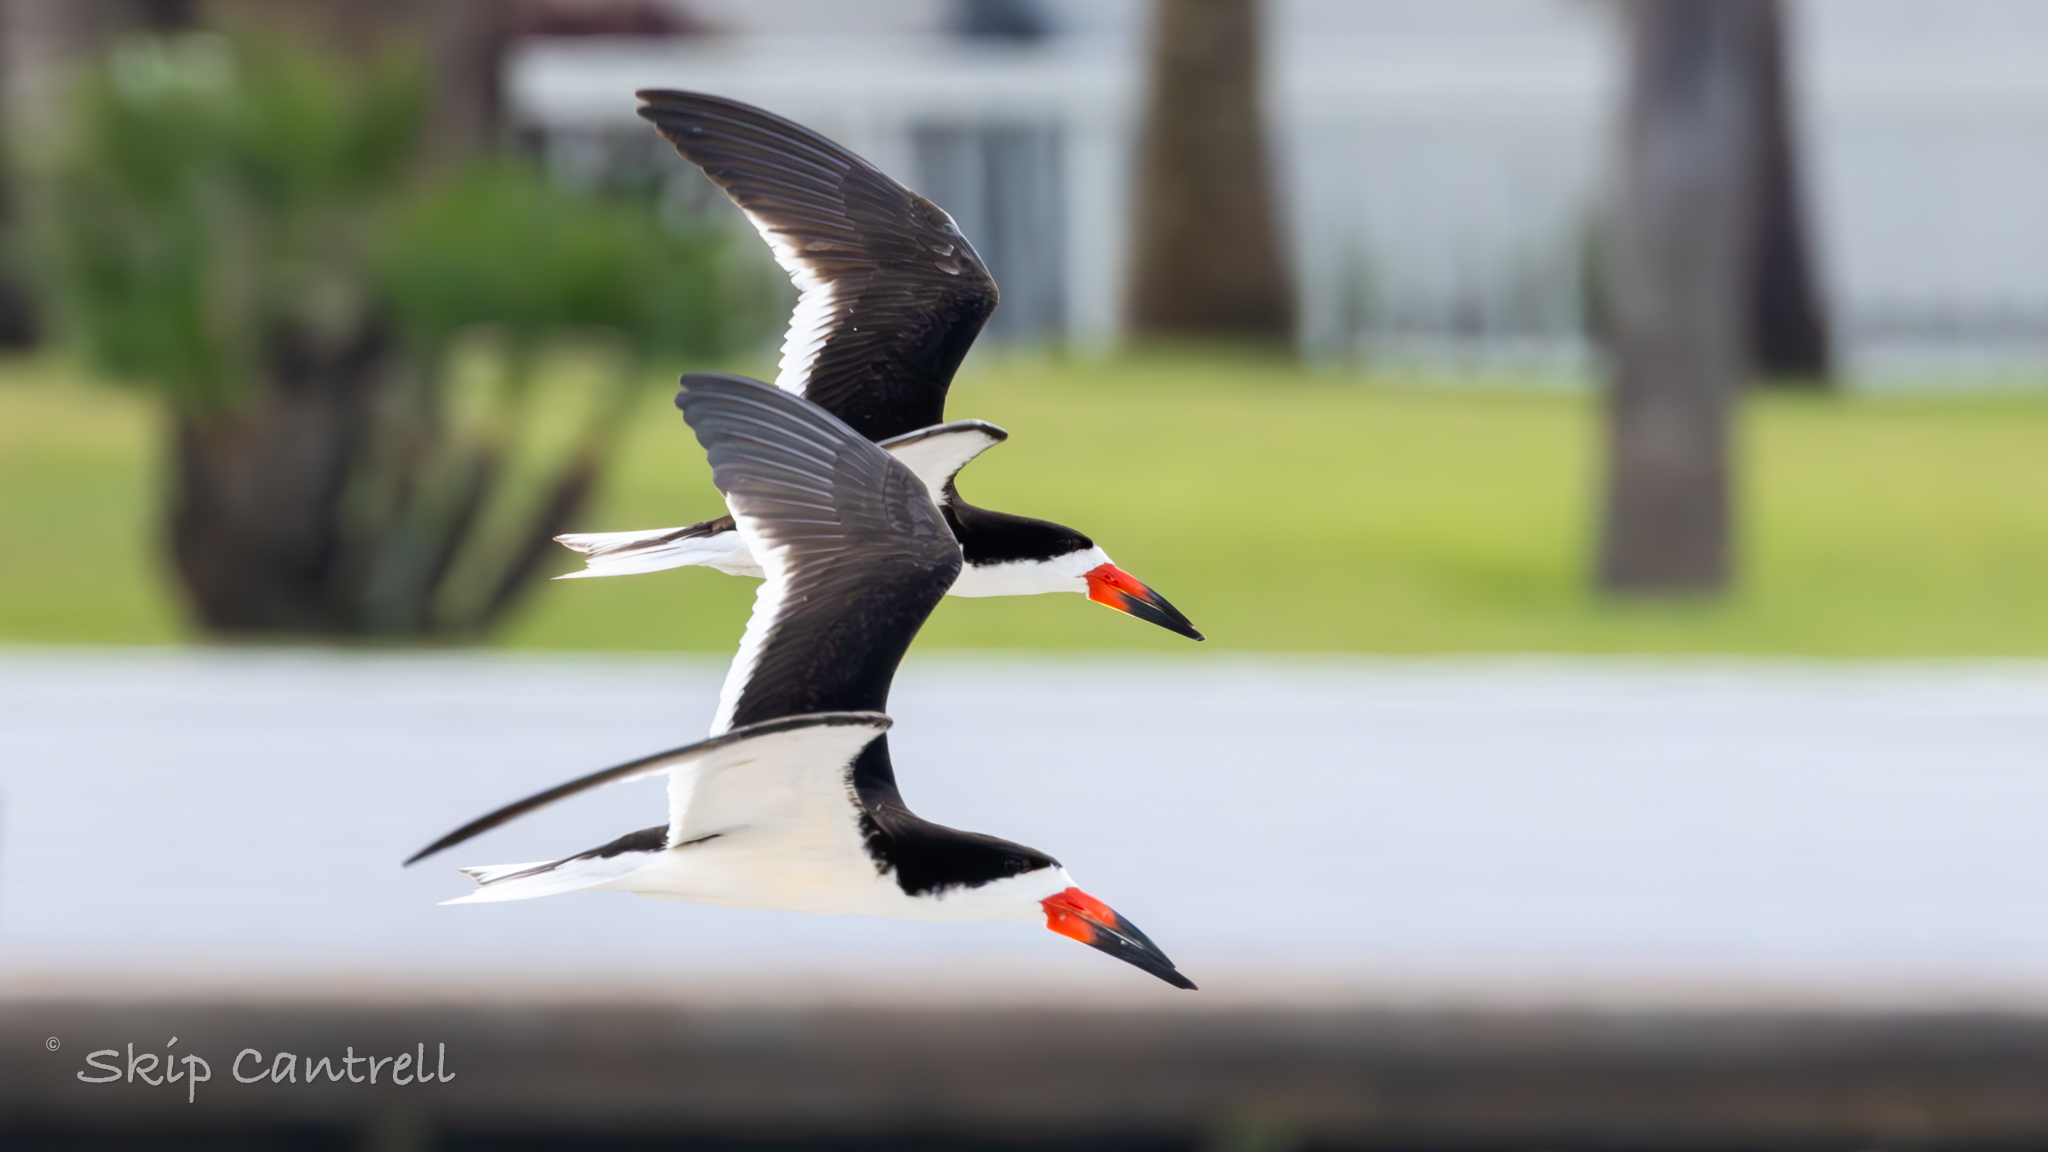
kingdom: Animalia
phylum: Chordata
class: Aves
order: Charadriiformes
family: Laridae
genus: Rynchops
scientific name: Rynchops niger
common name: Black skimmer
